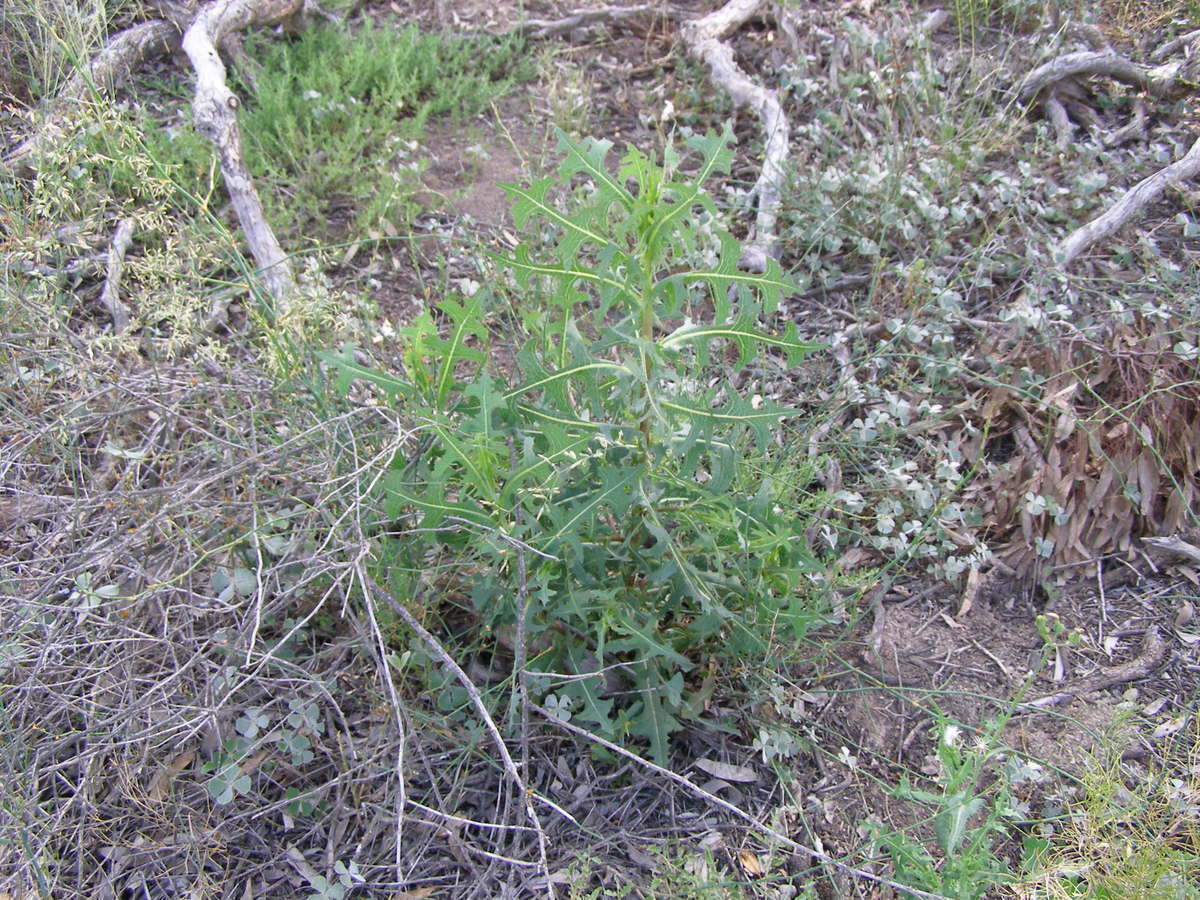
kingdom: Plantae
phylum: Tracheophyta
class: Magnoliopsida
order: Asterales
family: Asteraceae
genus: Lactuca
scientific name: Lactuca serriola
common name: Prickly lettuce
